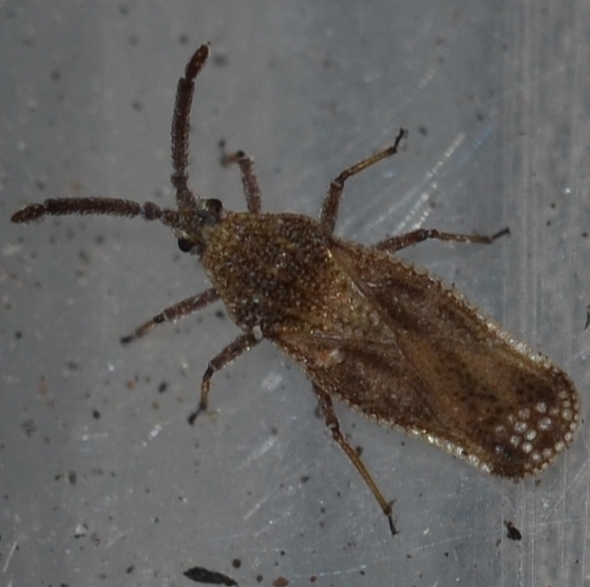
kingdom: Animalia
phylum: Arthropoda
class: Insecta
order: Hemiptera
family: Tingidae
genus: Teleonemia
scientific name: Teleonemia scrupulosa
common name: Lantana lace bug
